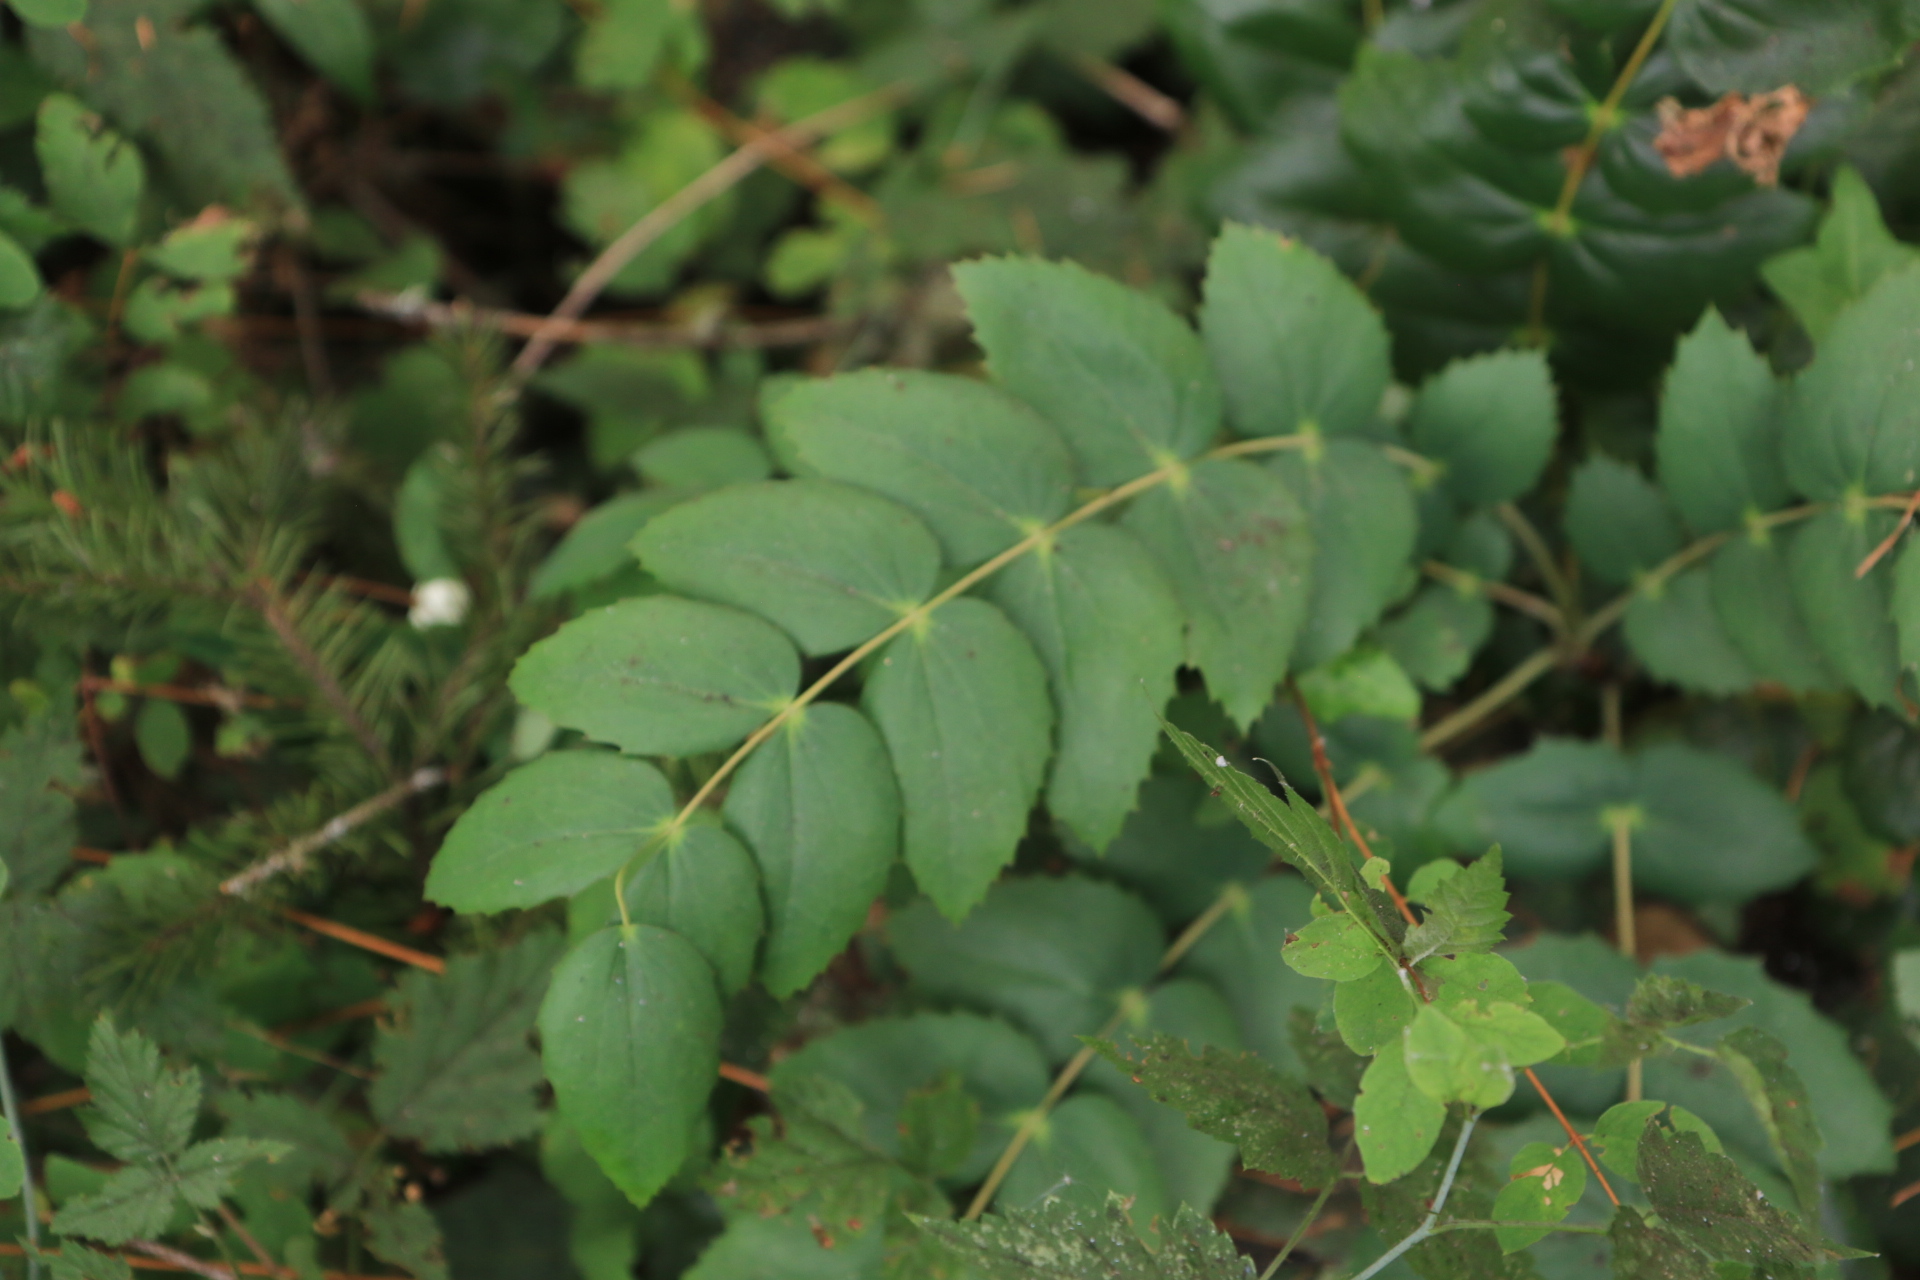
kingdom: Plantae
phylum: Tracheophyta
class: Magnoliopsida
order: Ranunculales
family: Berberidaceae
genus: Mahonia
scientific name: Mahonia nervosa
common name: Cascade oregon-grape
